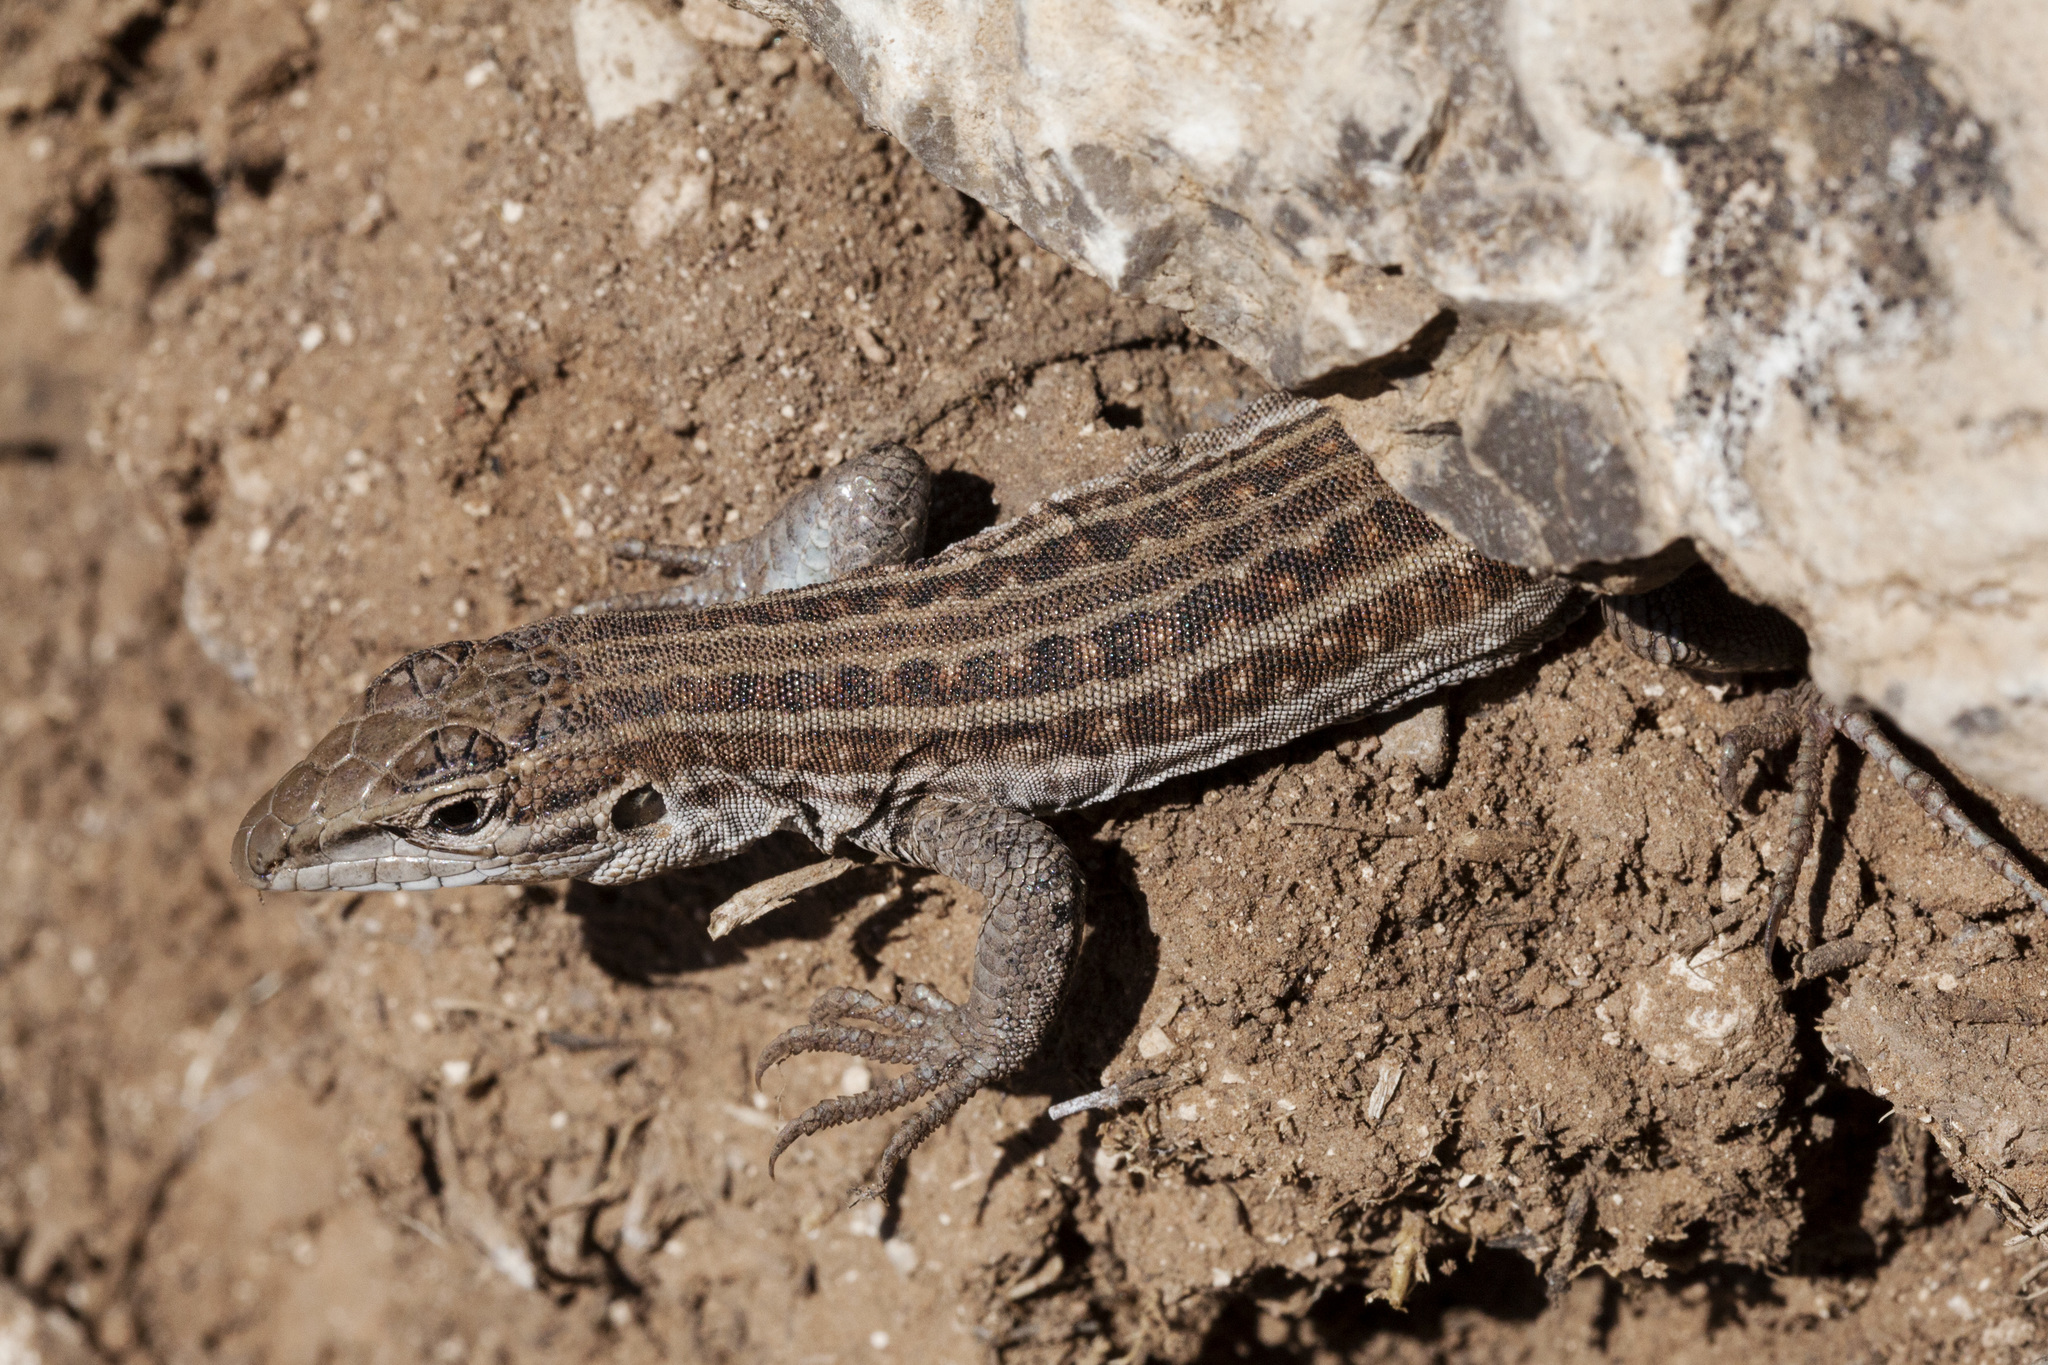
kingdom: Animalia
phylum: Chordata
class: Squamata
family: Teiidae
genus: Aspidoscelis
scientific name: Aspidoscelis exsanguis
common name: Chihuahuan spotted whiptail
